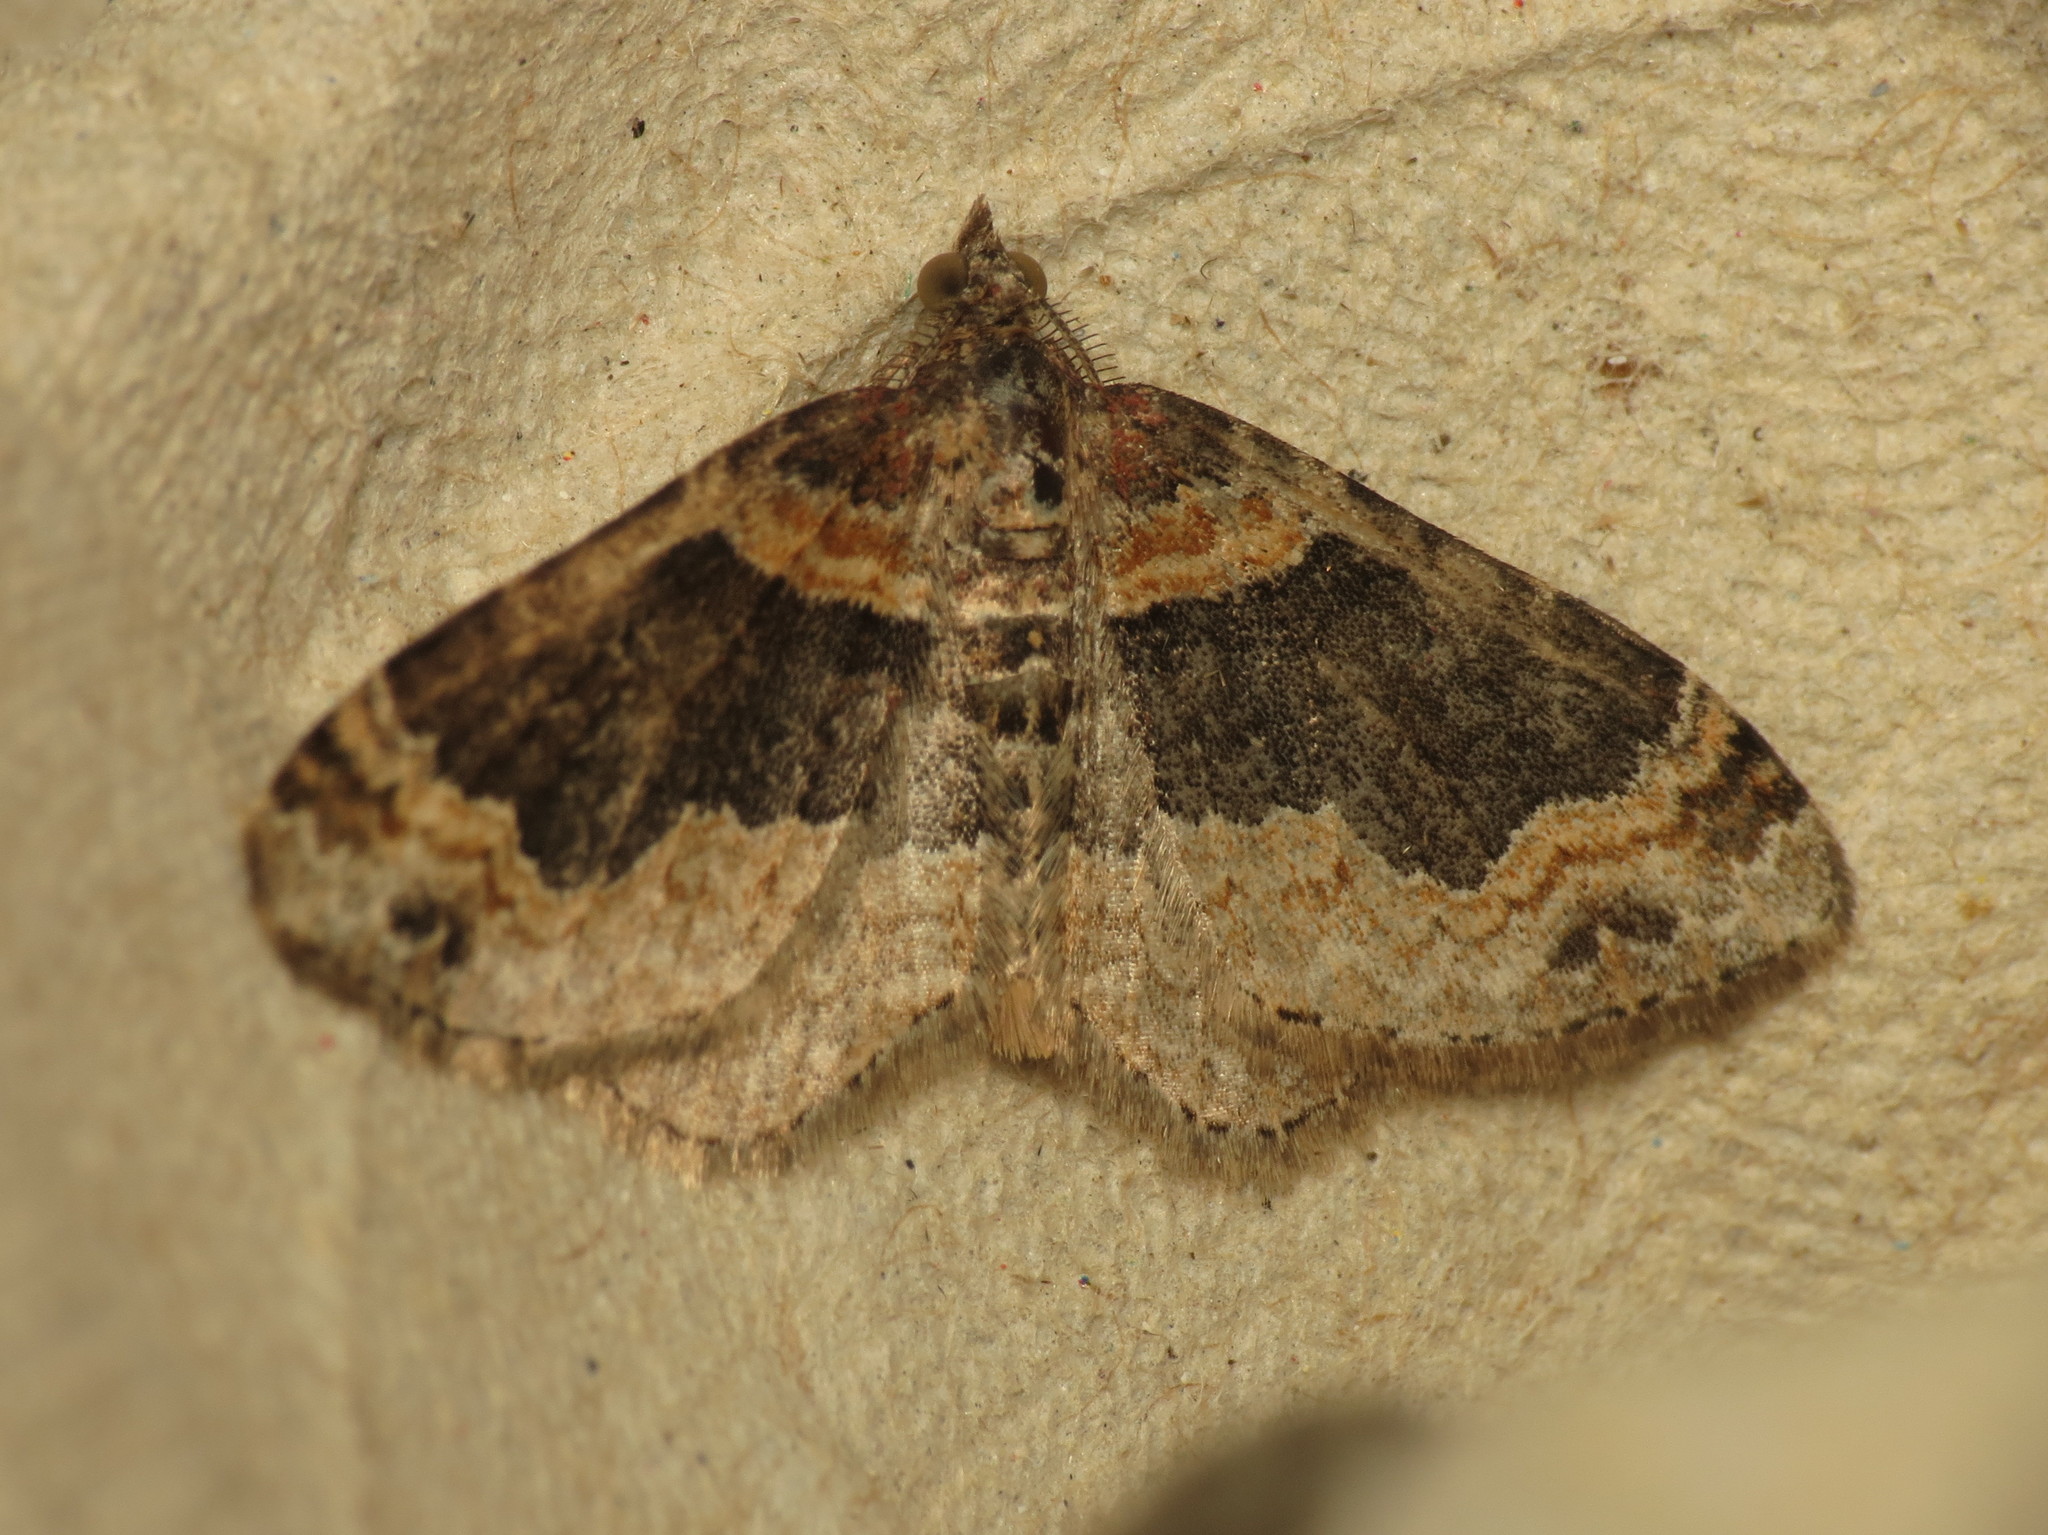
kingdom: Animalia
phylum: Arthropoda
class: Insecta
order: Lepidoptera
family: Geometridae
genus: Xanthorhoe
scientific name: Xanthorhoe ferrugata
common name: Dark-barred twin-spot carpet
